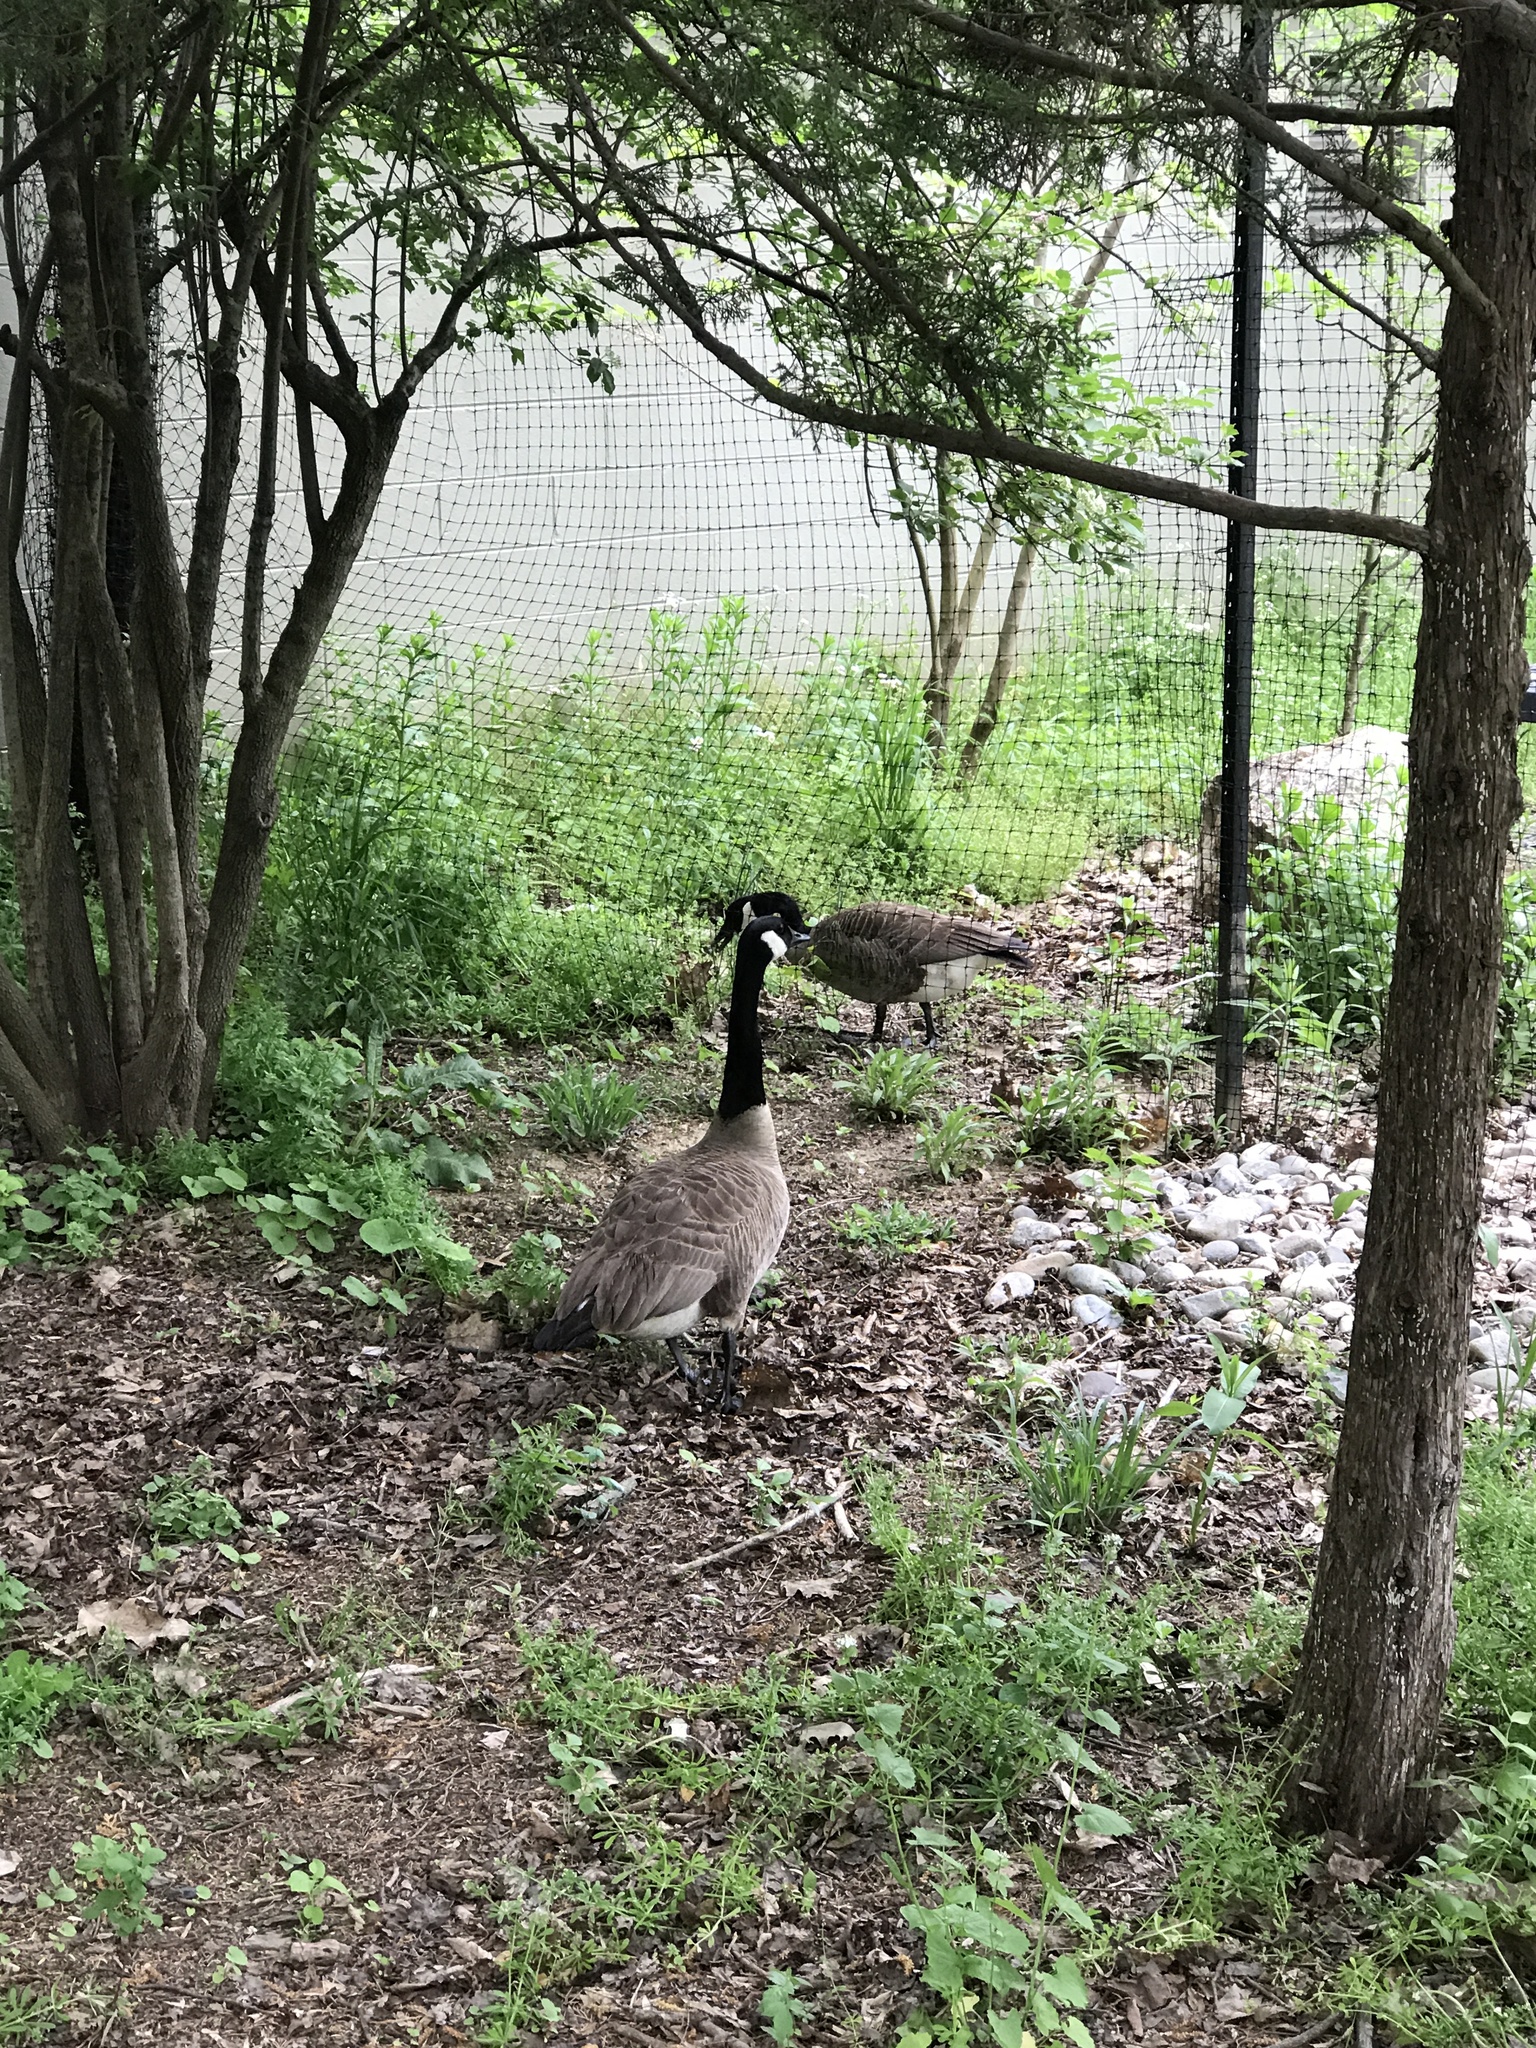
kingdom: Animalia
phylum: Chordata
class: Aves
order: Anseriformes
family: Anatidae
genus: Branta
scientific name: Branta canadensis
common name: Canada goose
